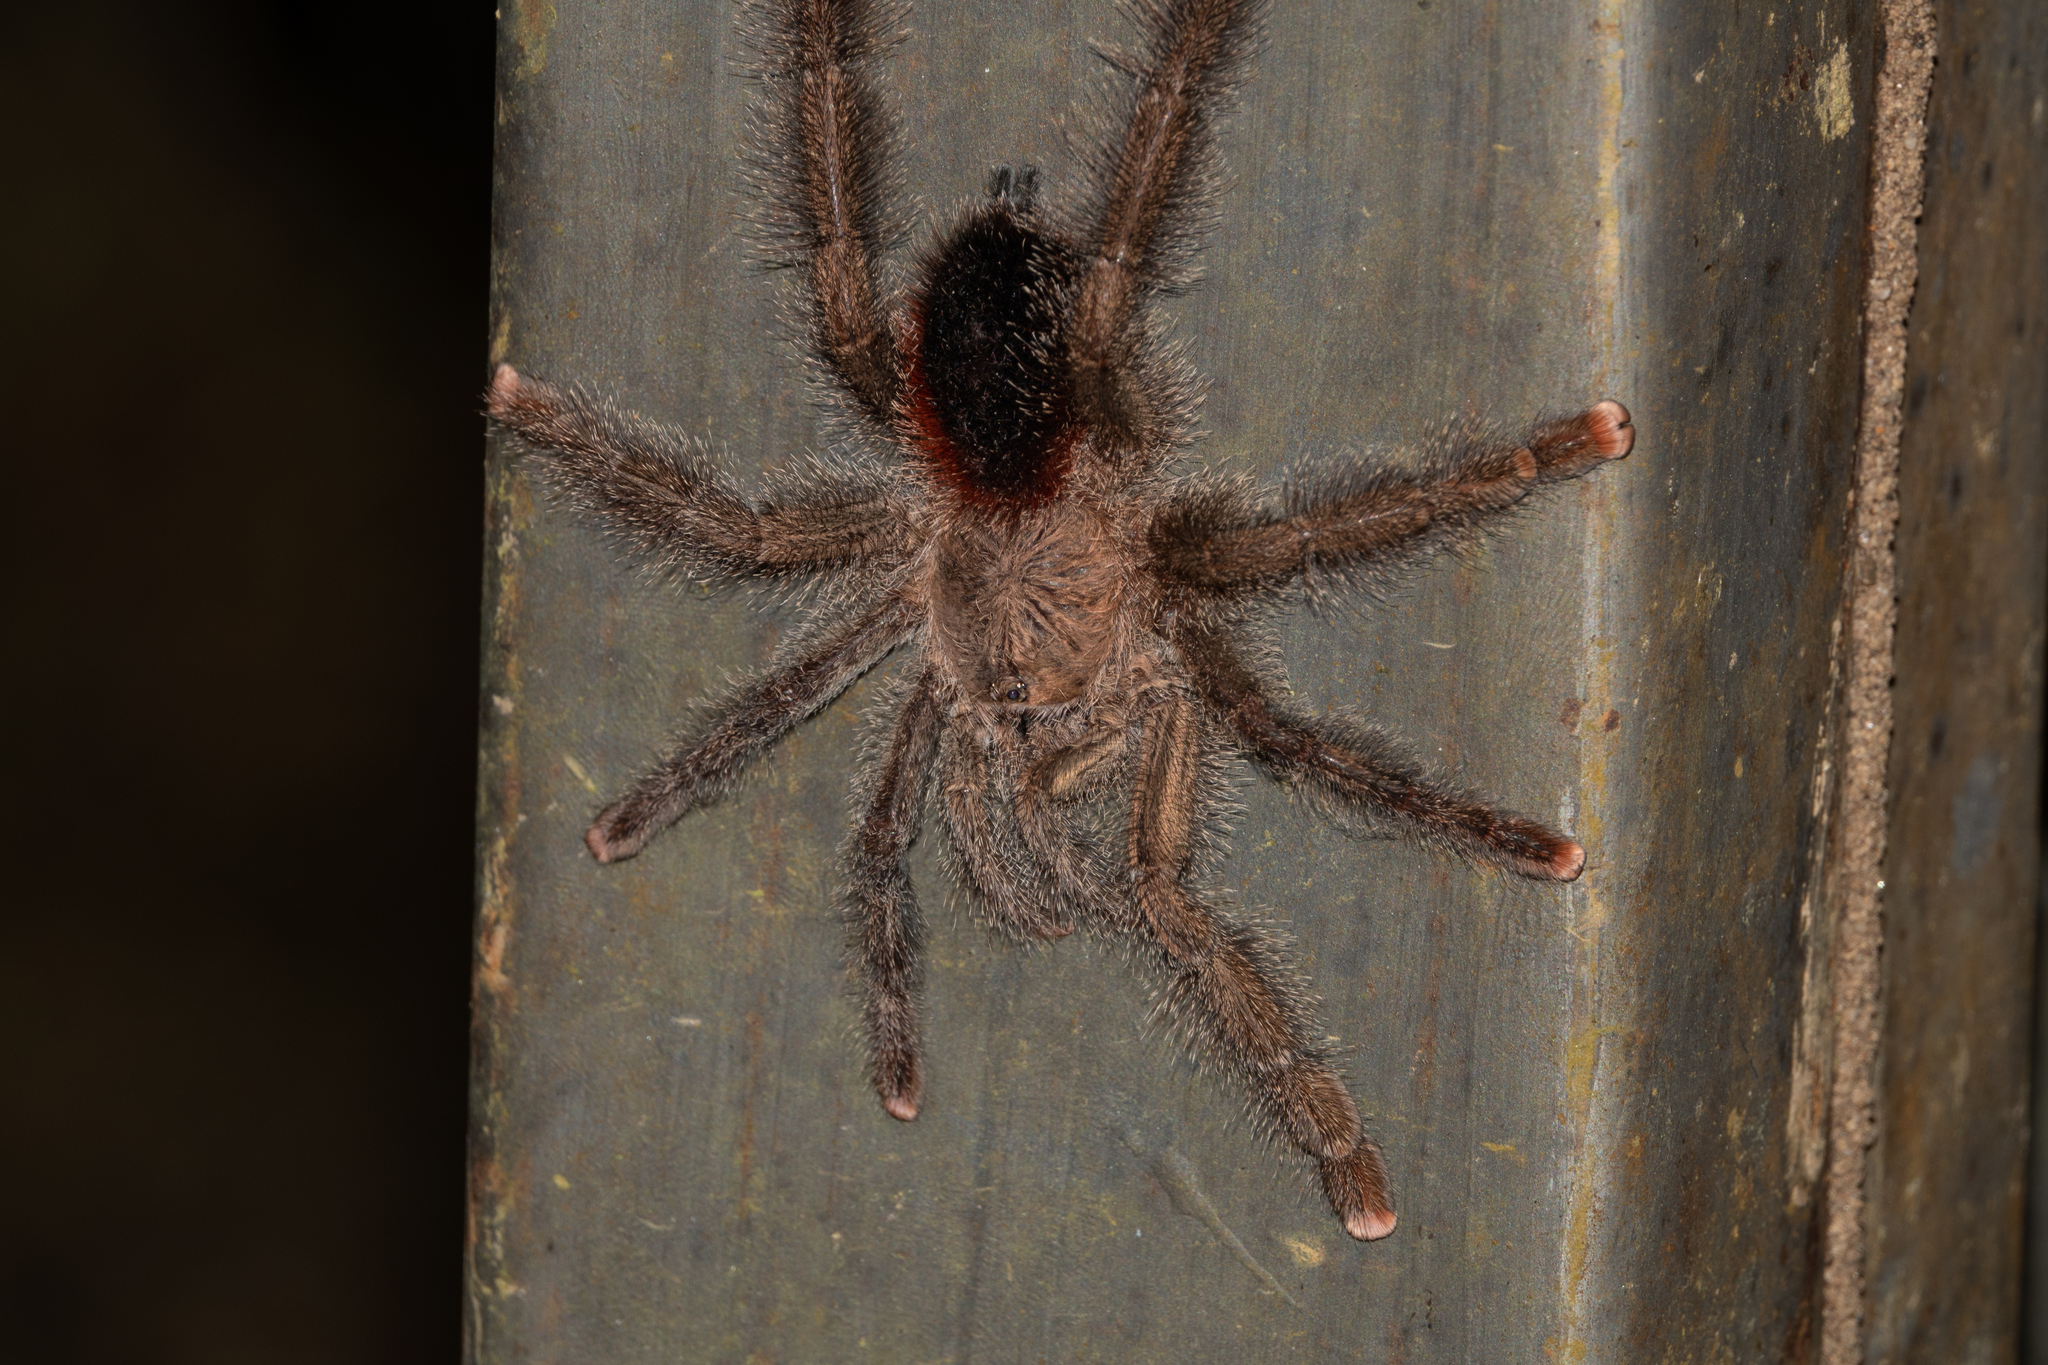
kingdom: Animalia
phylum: Arthropoda
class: Arachnida
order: Araneae
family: Theraphosidae
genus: Avicularia
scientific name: Avicularia juruensis
